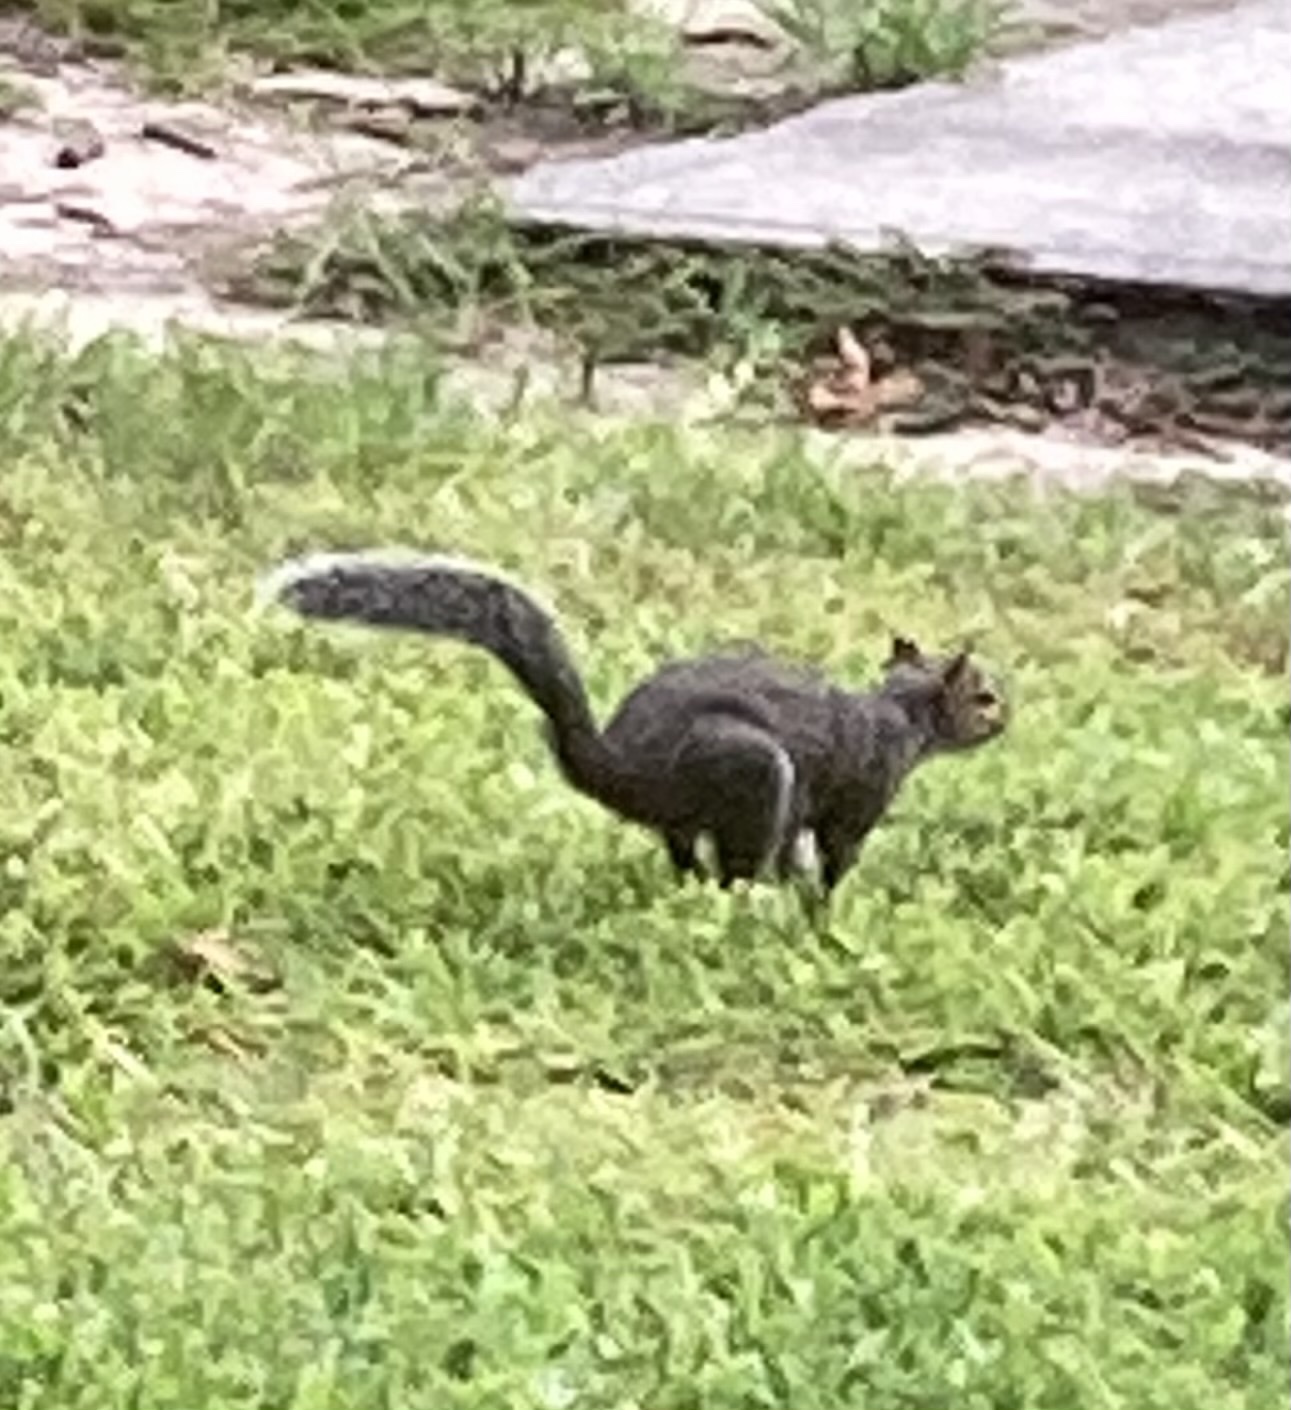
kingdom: Animalia
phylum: Chordata
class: Mammalia
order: Rodentia
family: Sciuridae
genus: Sciurus
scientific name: Sciurus carolinensis
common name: Eastern gray squirrel
